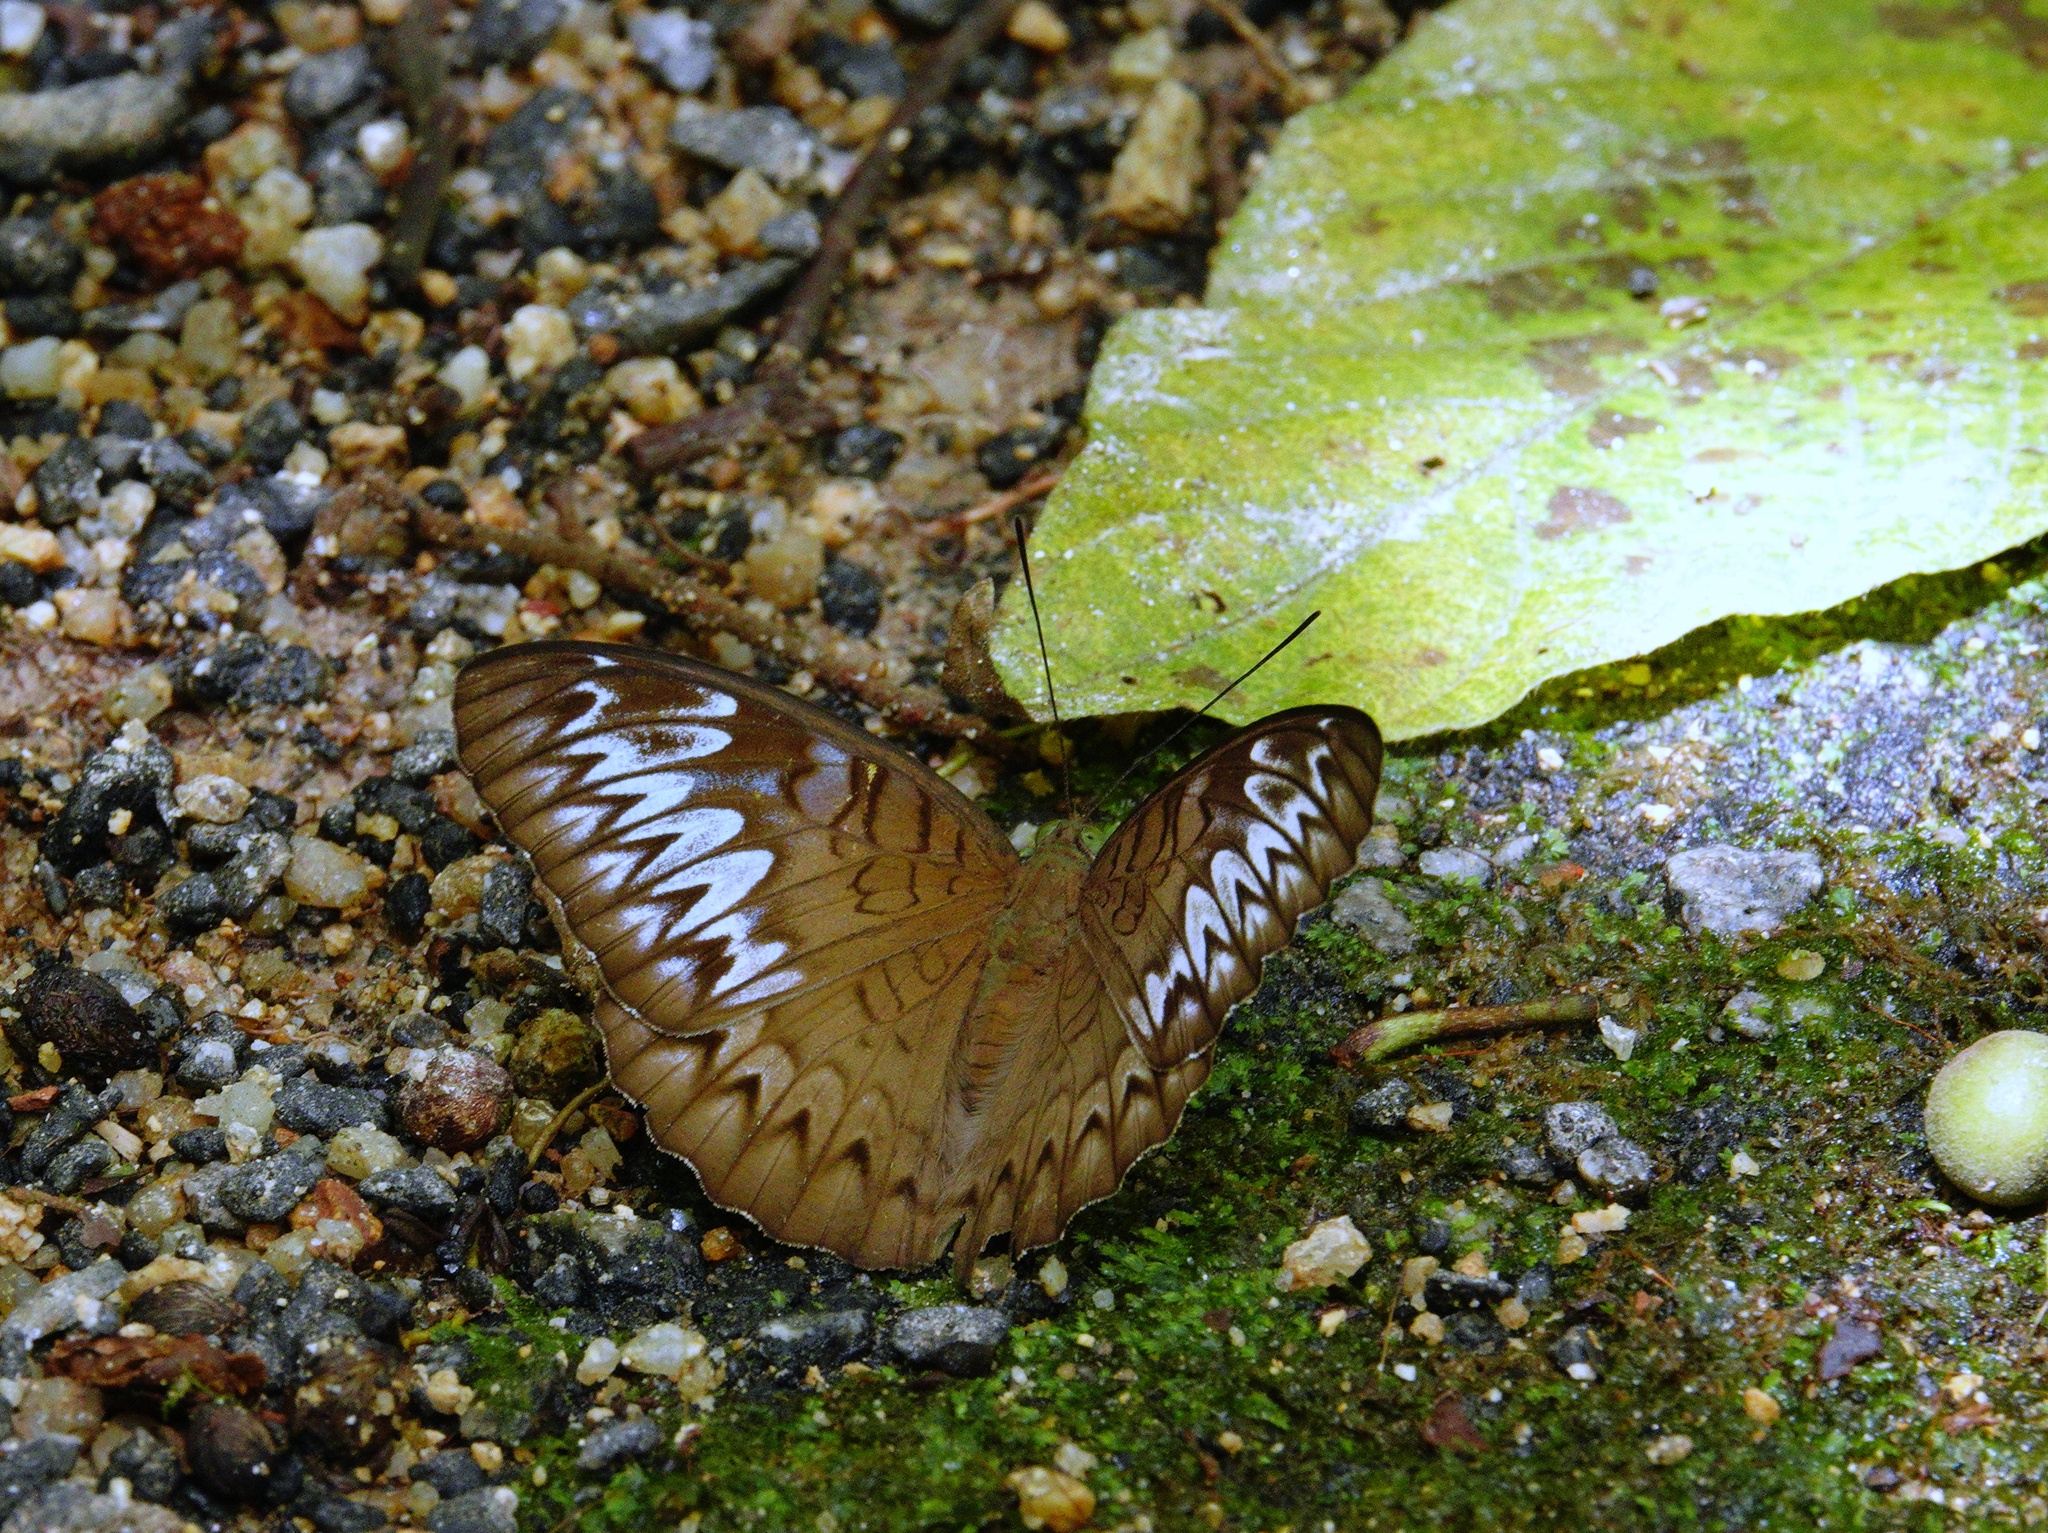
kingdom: Animalia
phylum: Arthropoda
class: Insecta
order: Lepidoptera
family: Nymphalidae
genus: Tanaecia
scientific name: Tanaecia pelea
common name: Malay viscount
